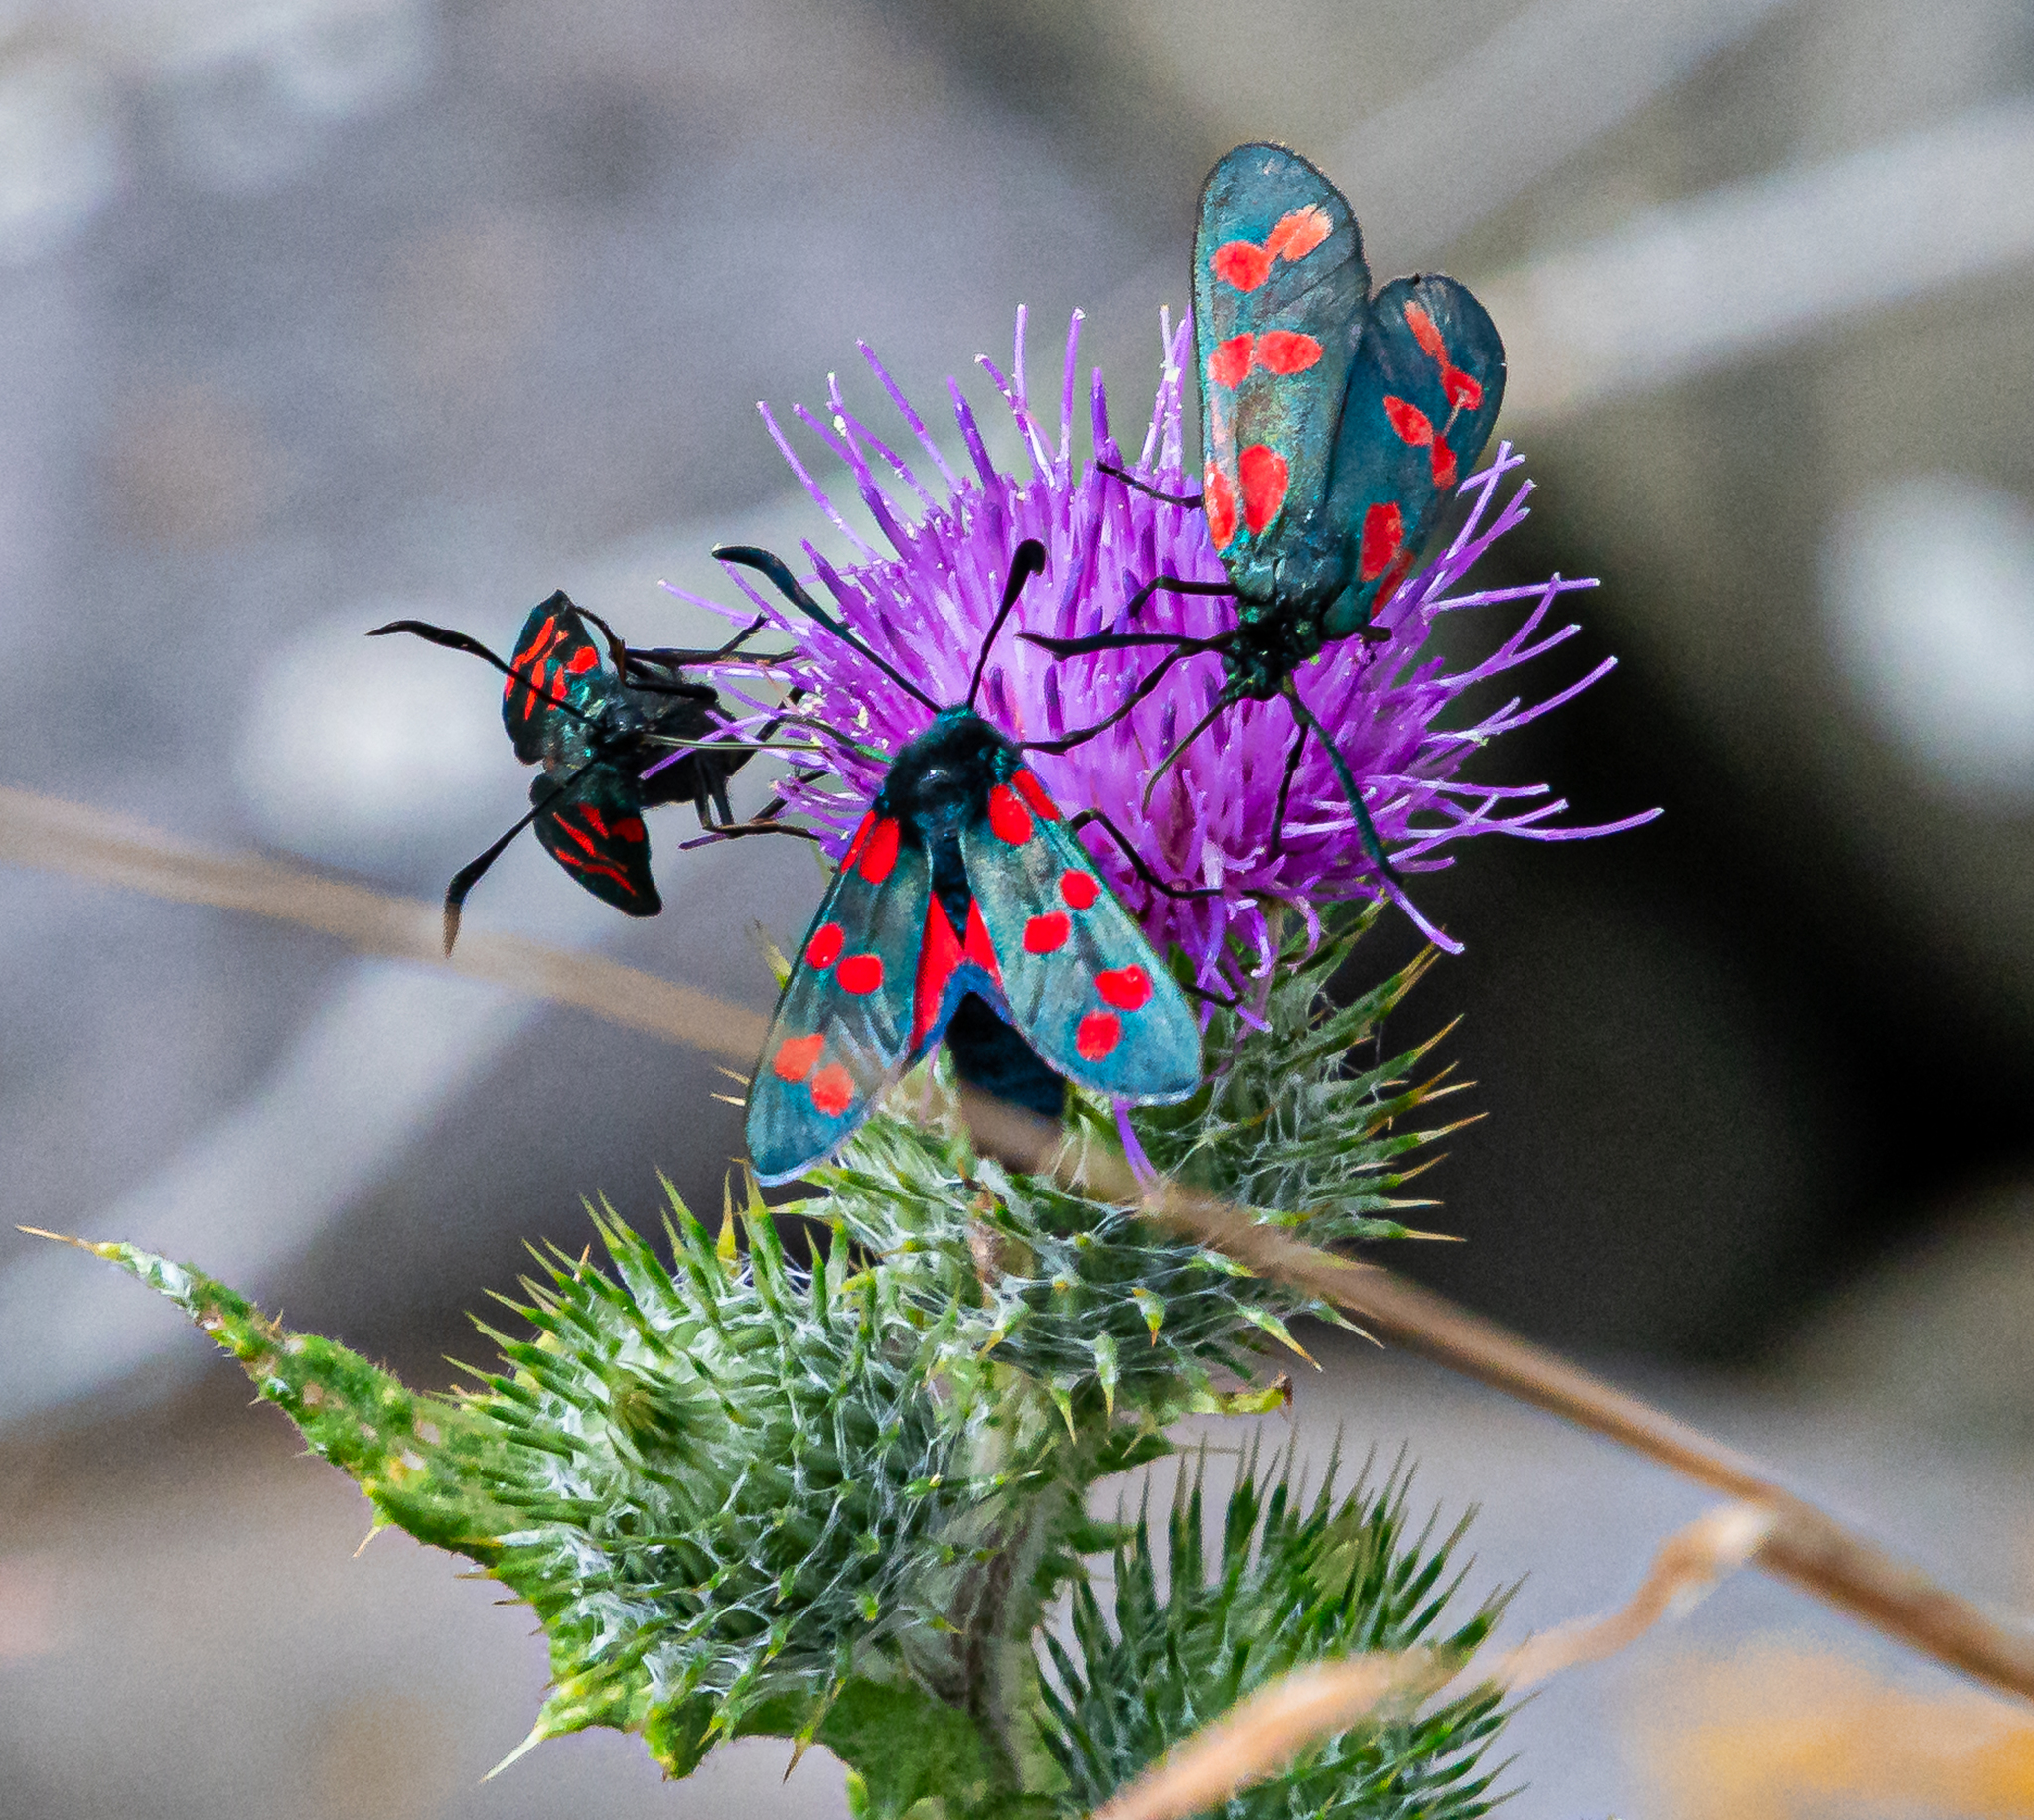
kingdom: Animalia
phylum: Arthropoda
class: Insecta
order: Lepidoptera
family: Zygaenidae
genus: Zygaena
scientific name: Zygaena filipendulae
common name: Six-spot burnet
